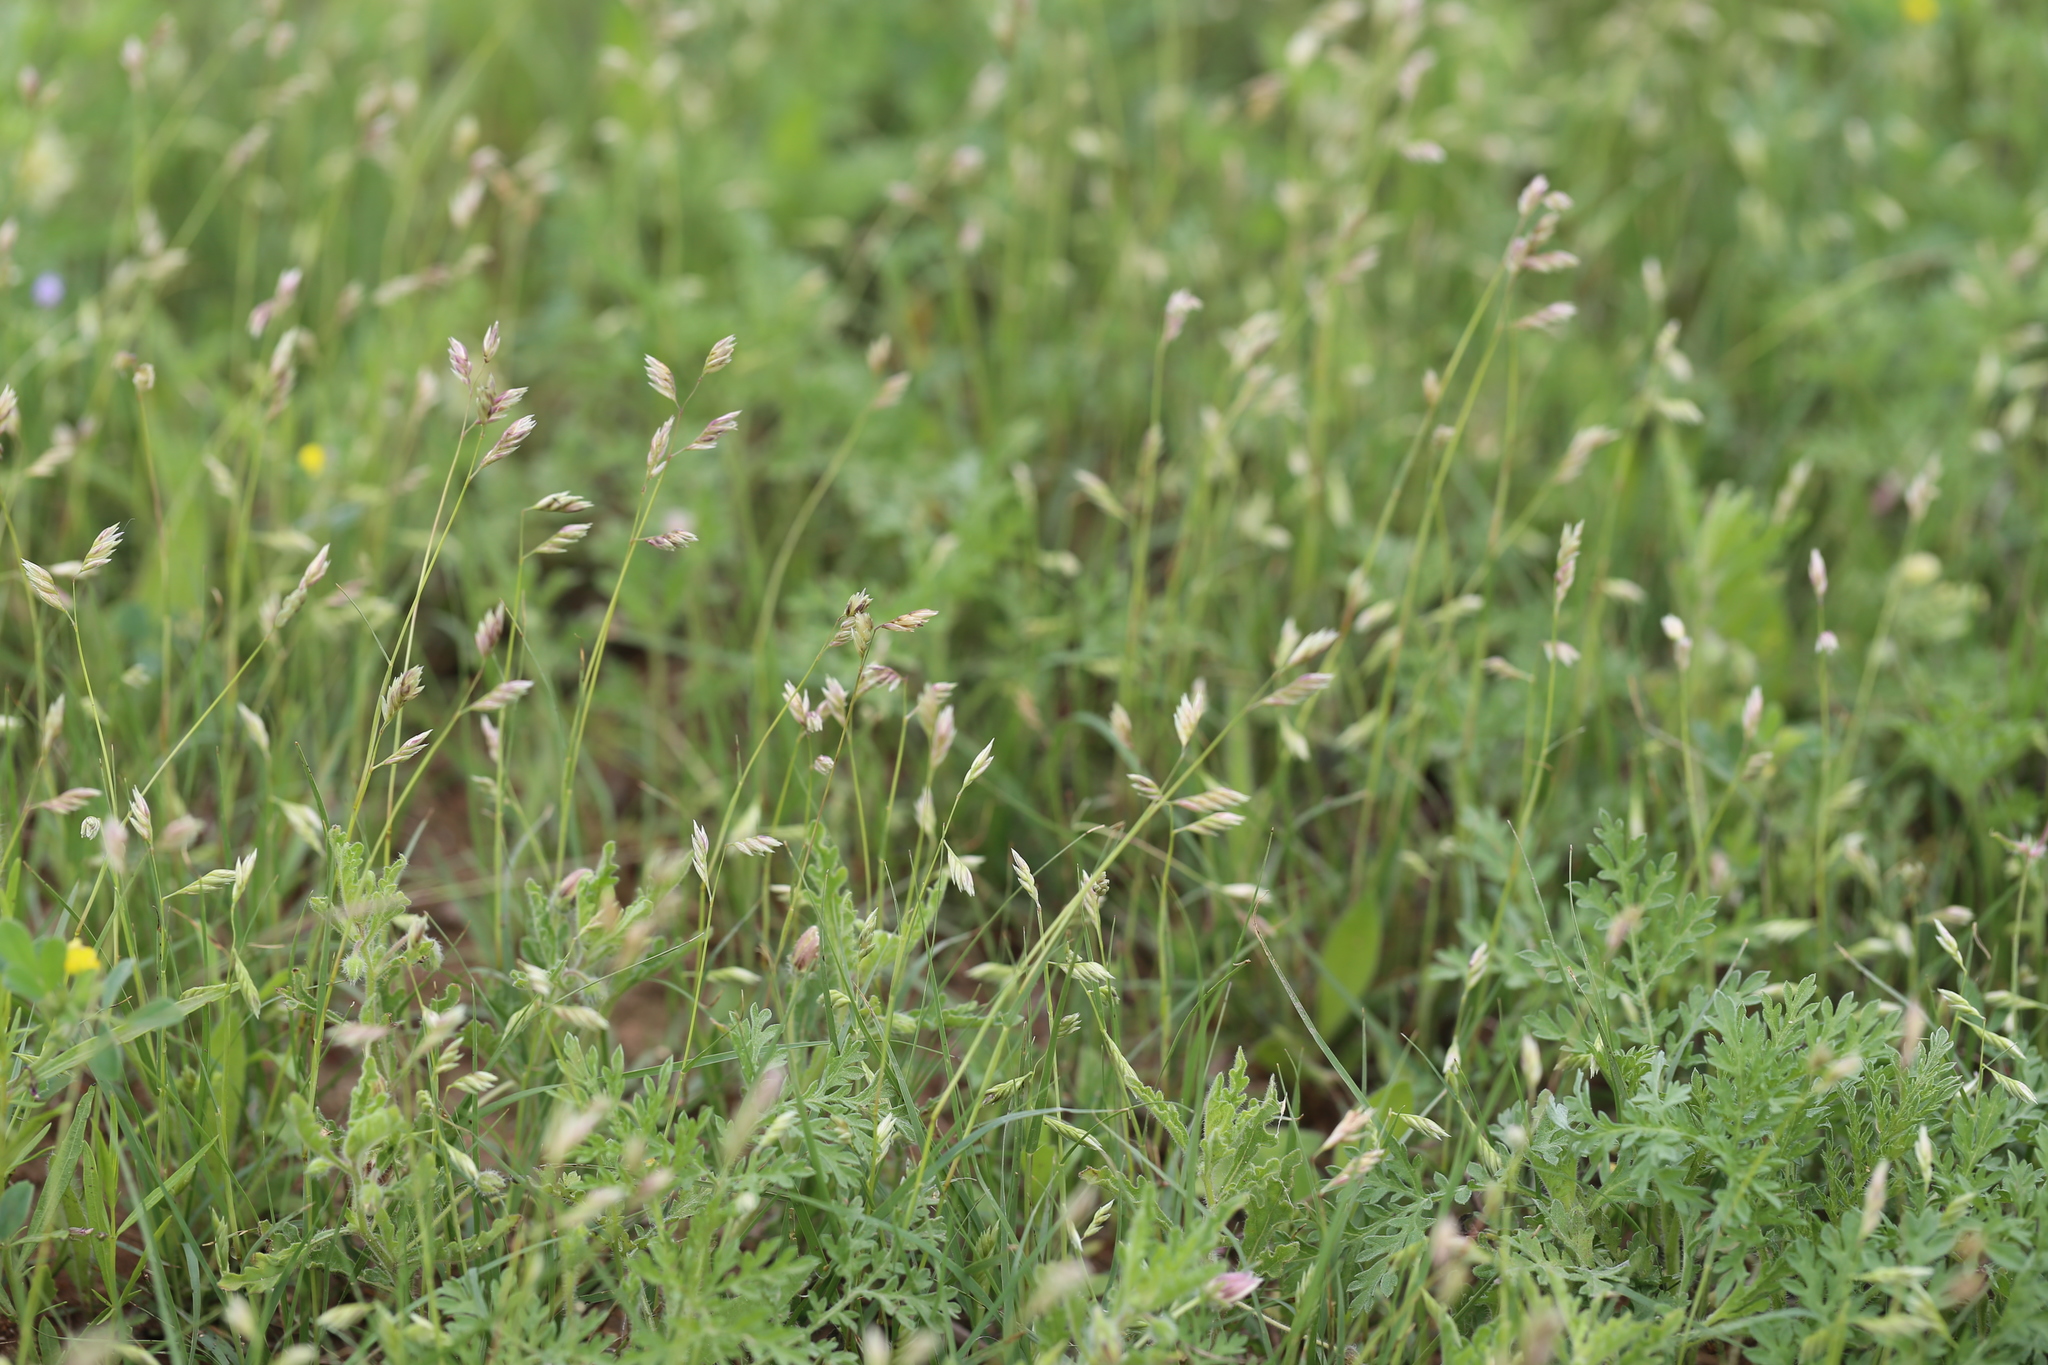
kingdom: Plantae
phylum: Tracheophyta
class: Liliopsida
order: Poales
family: Poaceae
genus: Bouteloua
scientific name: Bouteloua dactyloides
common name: Buffalo grass
